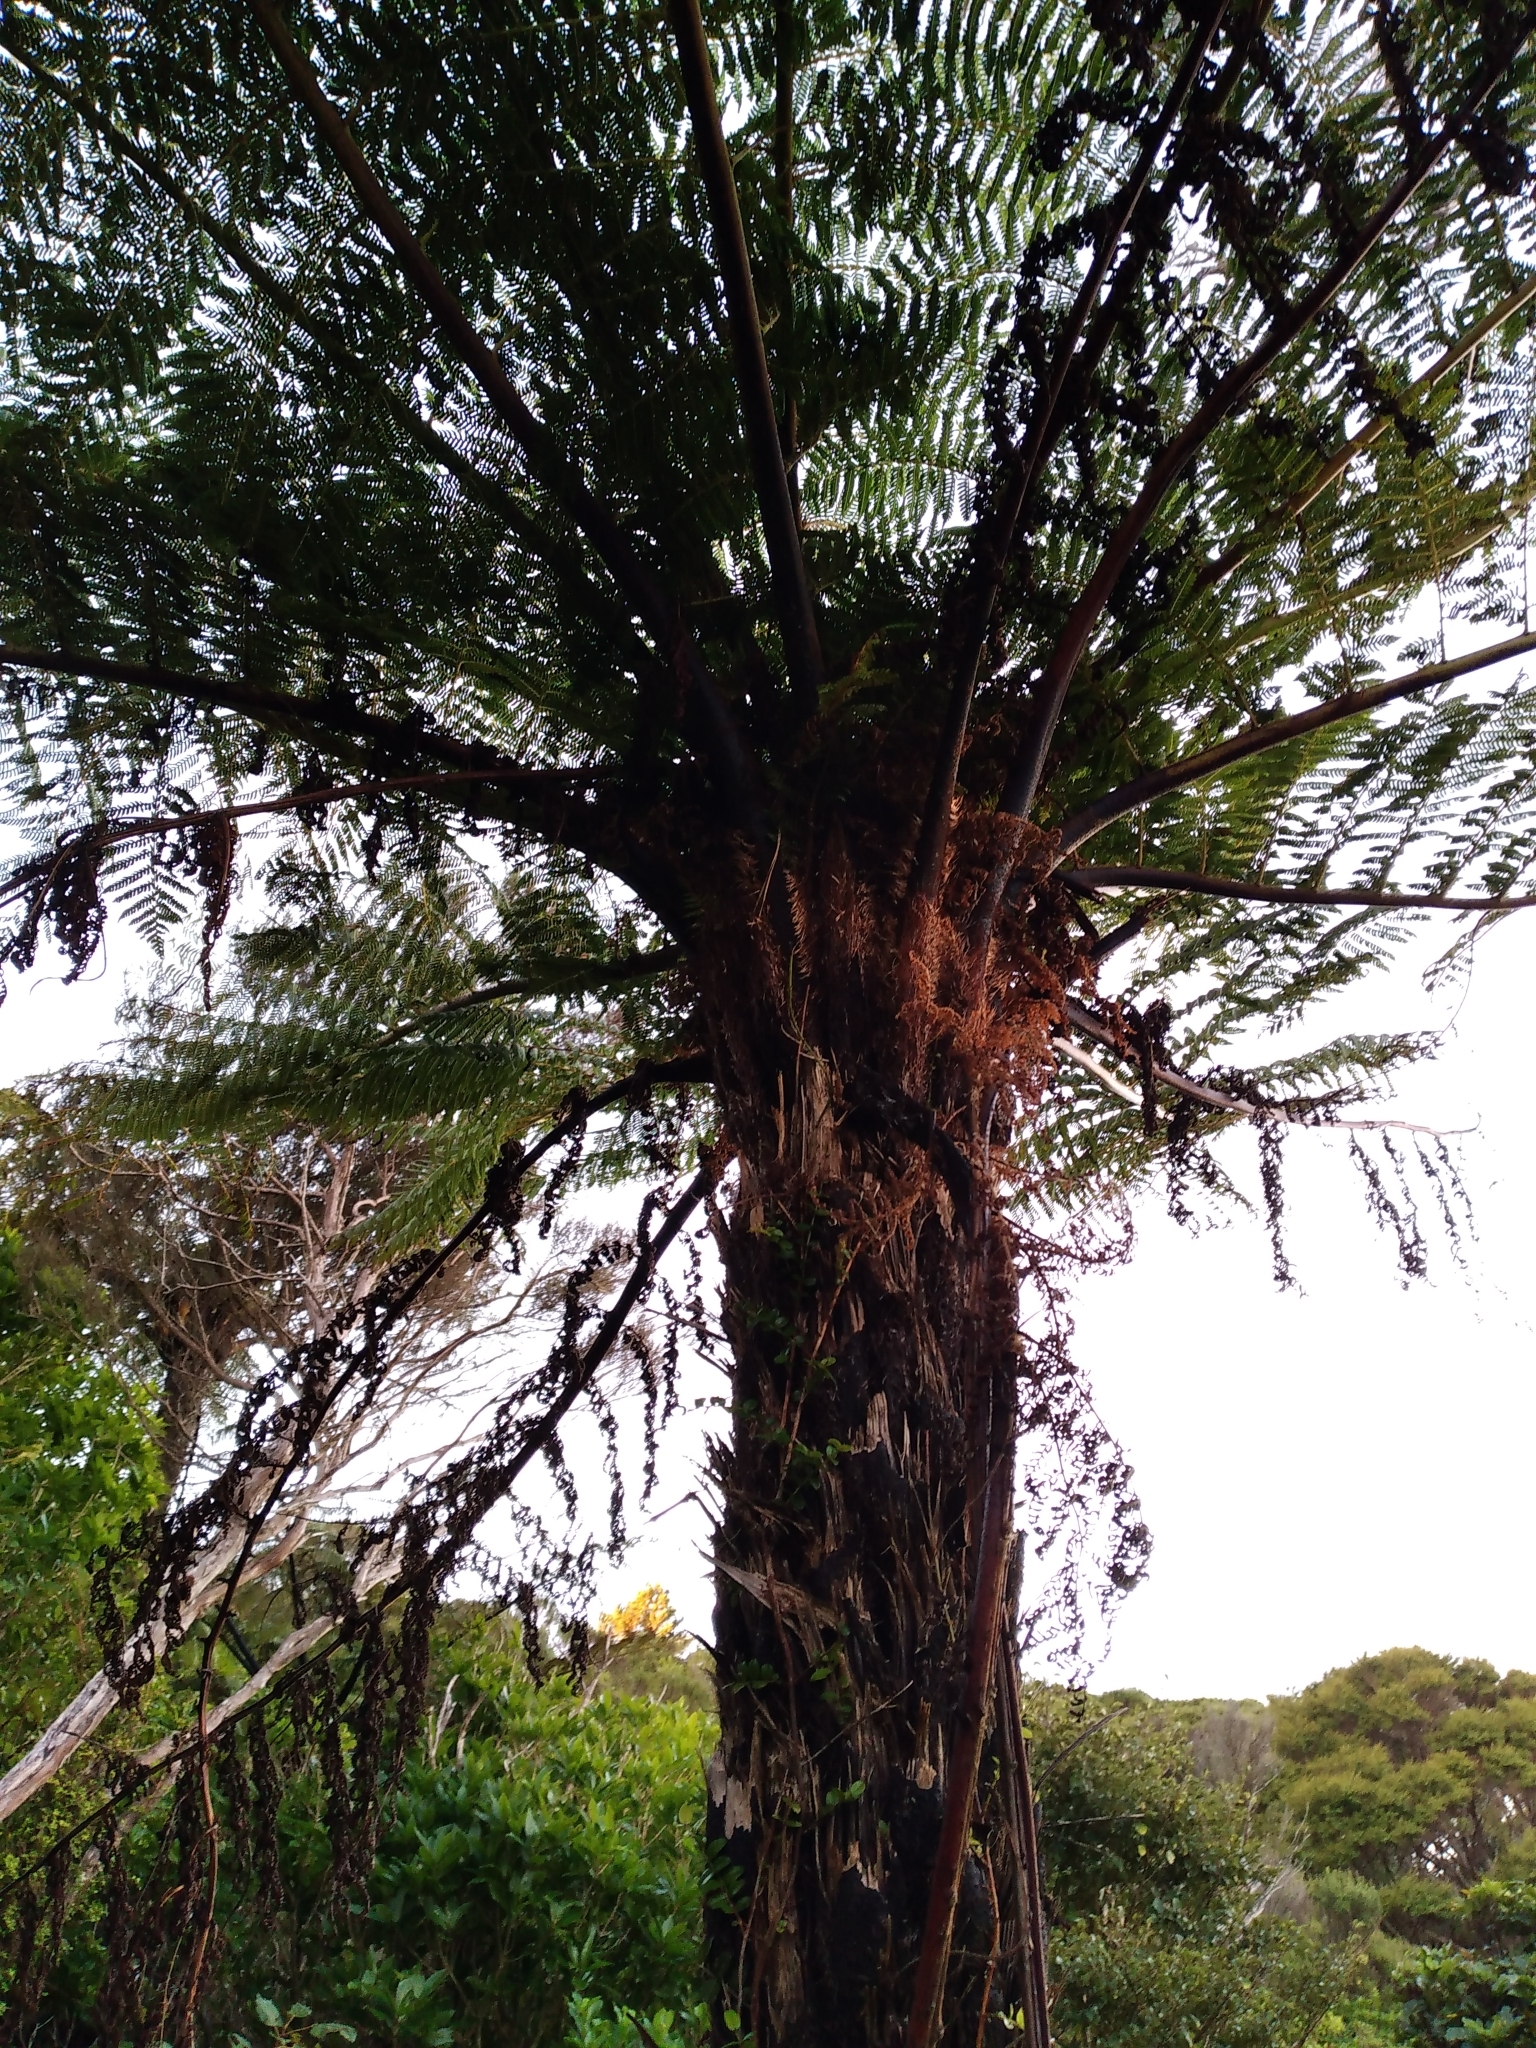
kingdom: Plantae
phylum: Tracheophyta
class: Polypodiopsida
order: Cyatheales
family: Cyatheaceae
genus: Cyathea
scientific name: Cyathea cunninghamii
